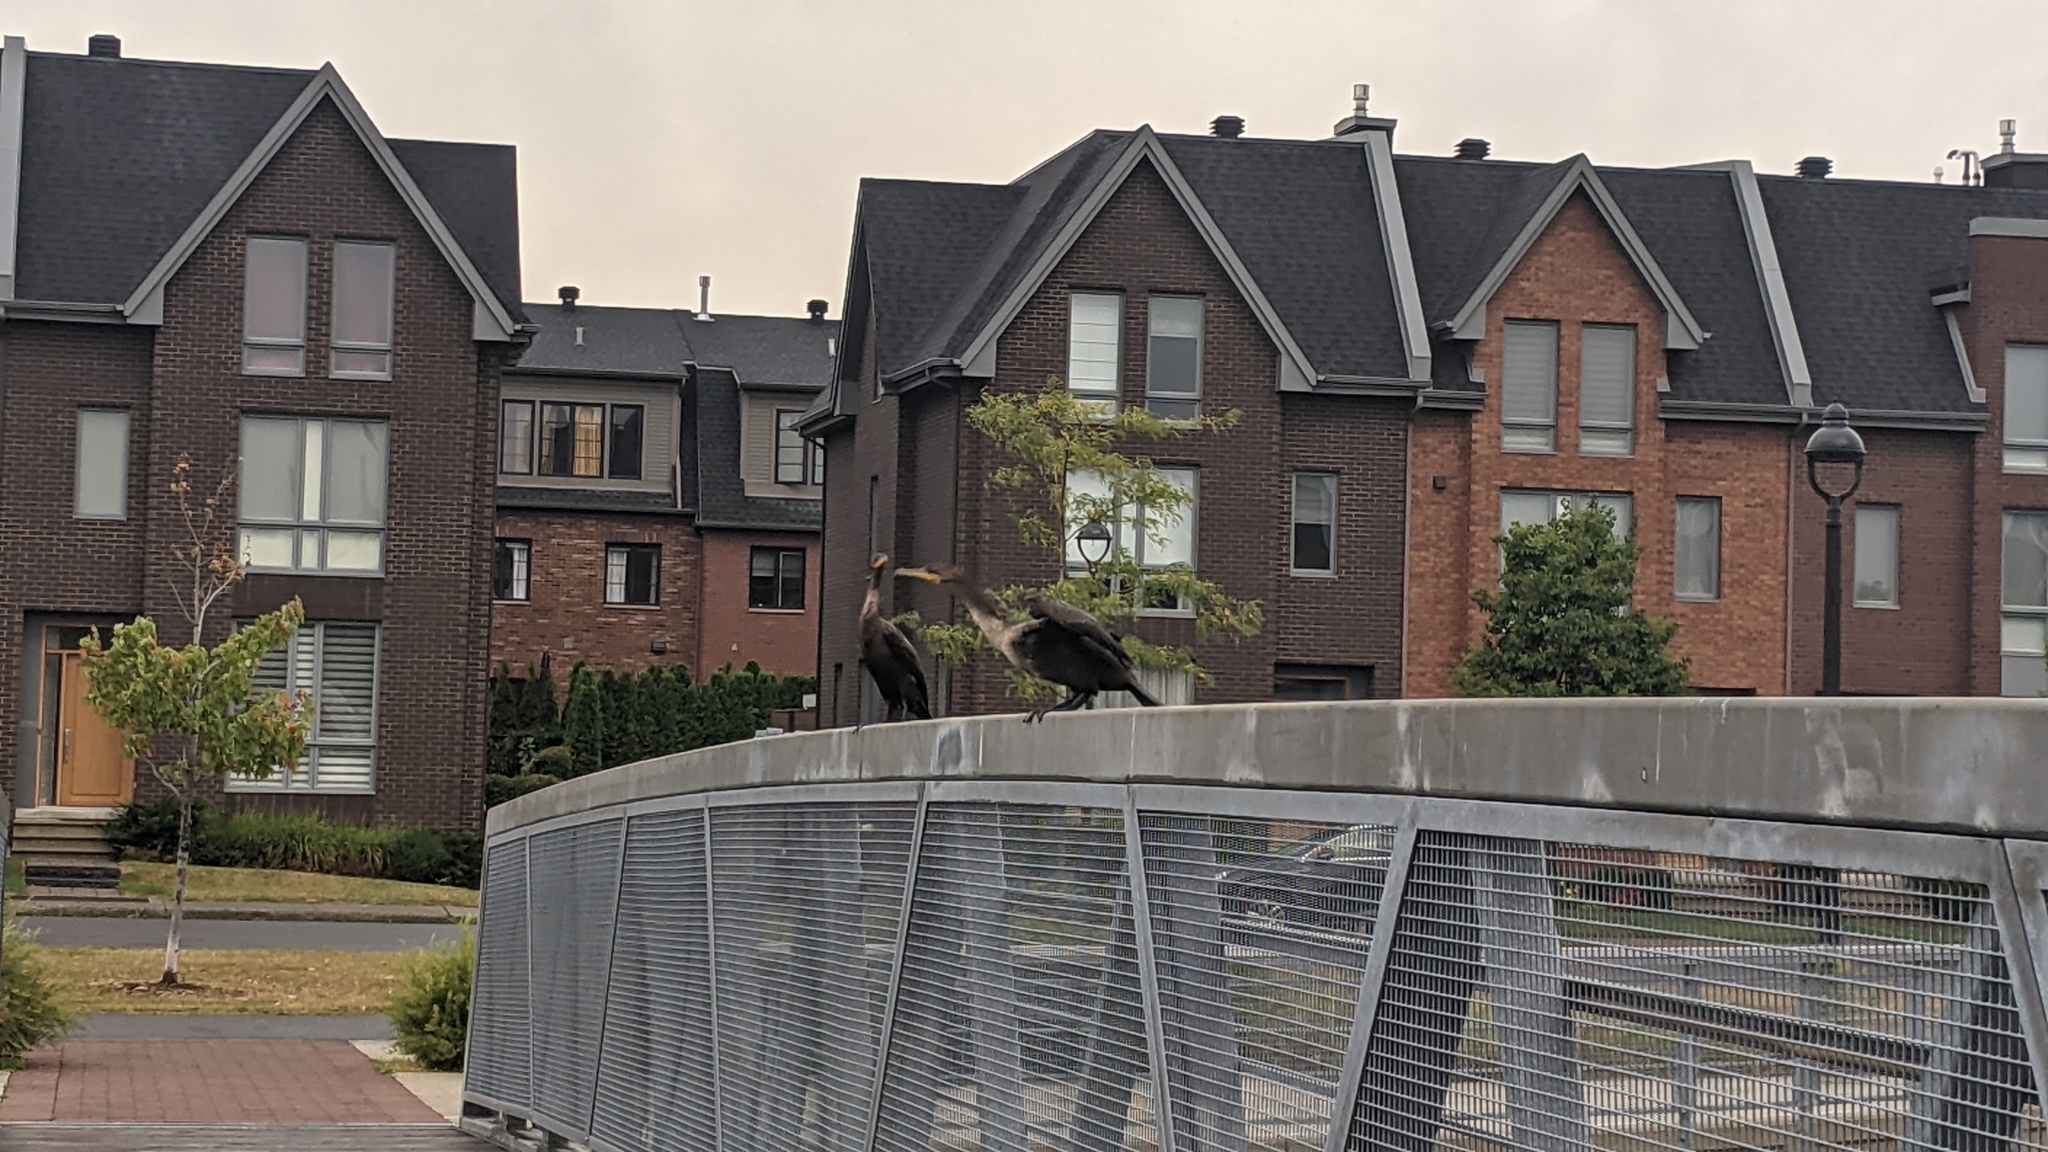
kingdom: Animalia
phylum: Chordata
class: Aves
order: Suliformes
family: Phalacrocoracidae
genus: Phalacrocorax
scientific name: Phalacrocorax auritus
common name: Double-crested cormorant
